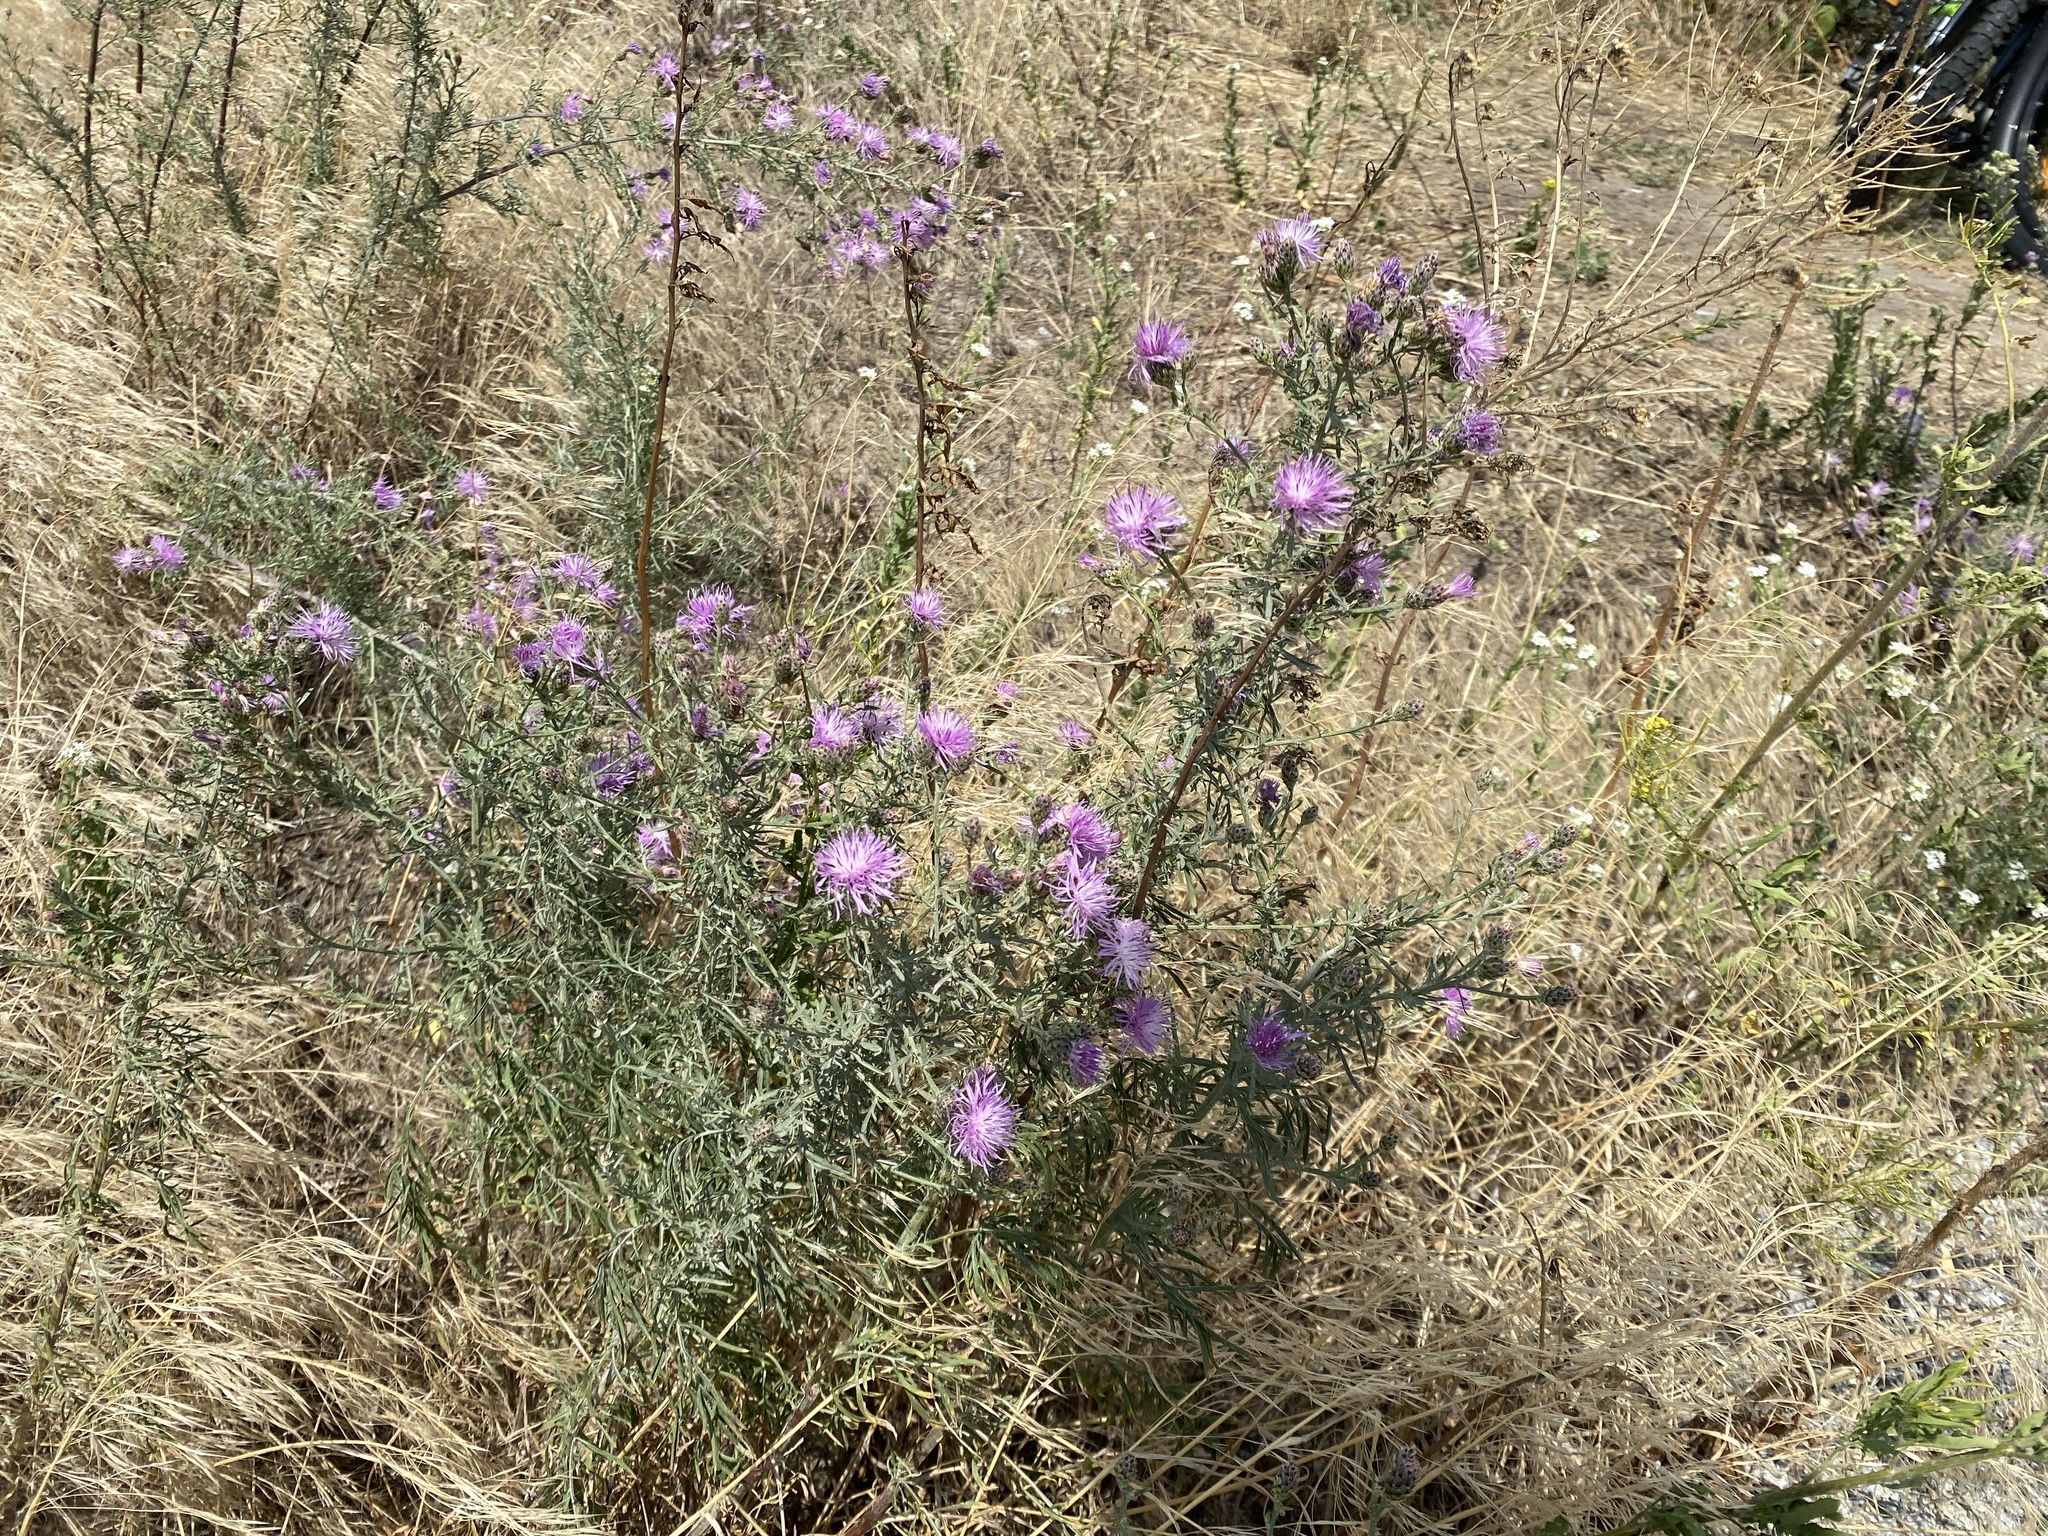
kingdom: Plantae
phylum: Tracheophyta
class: Magnoliopsida
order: Asterales
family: Asteraceae
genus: Centaurea
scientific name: Centaurea stoebe
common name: Spotted knapweed
